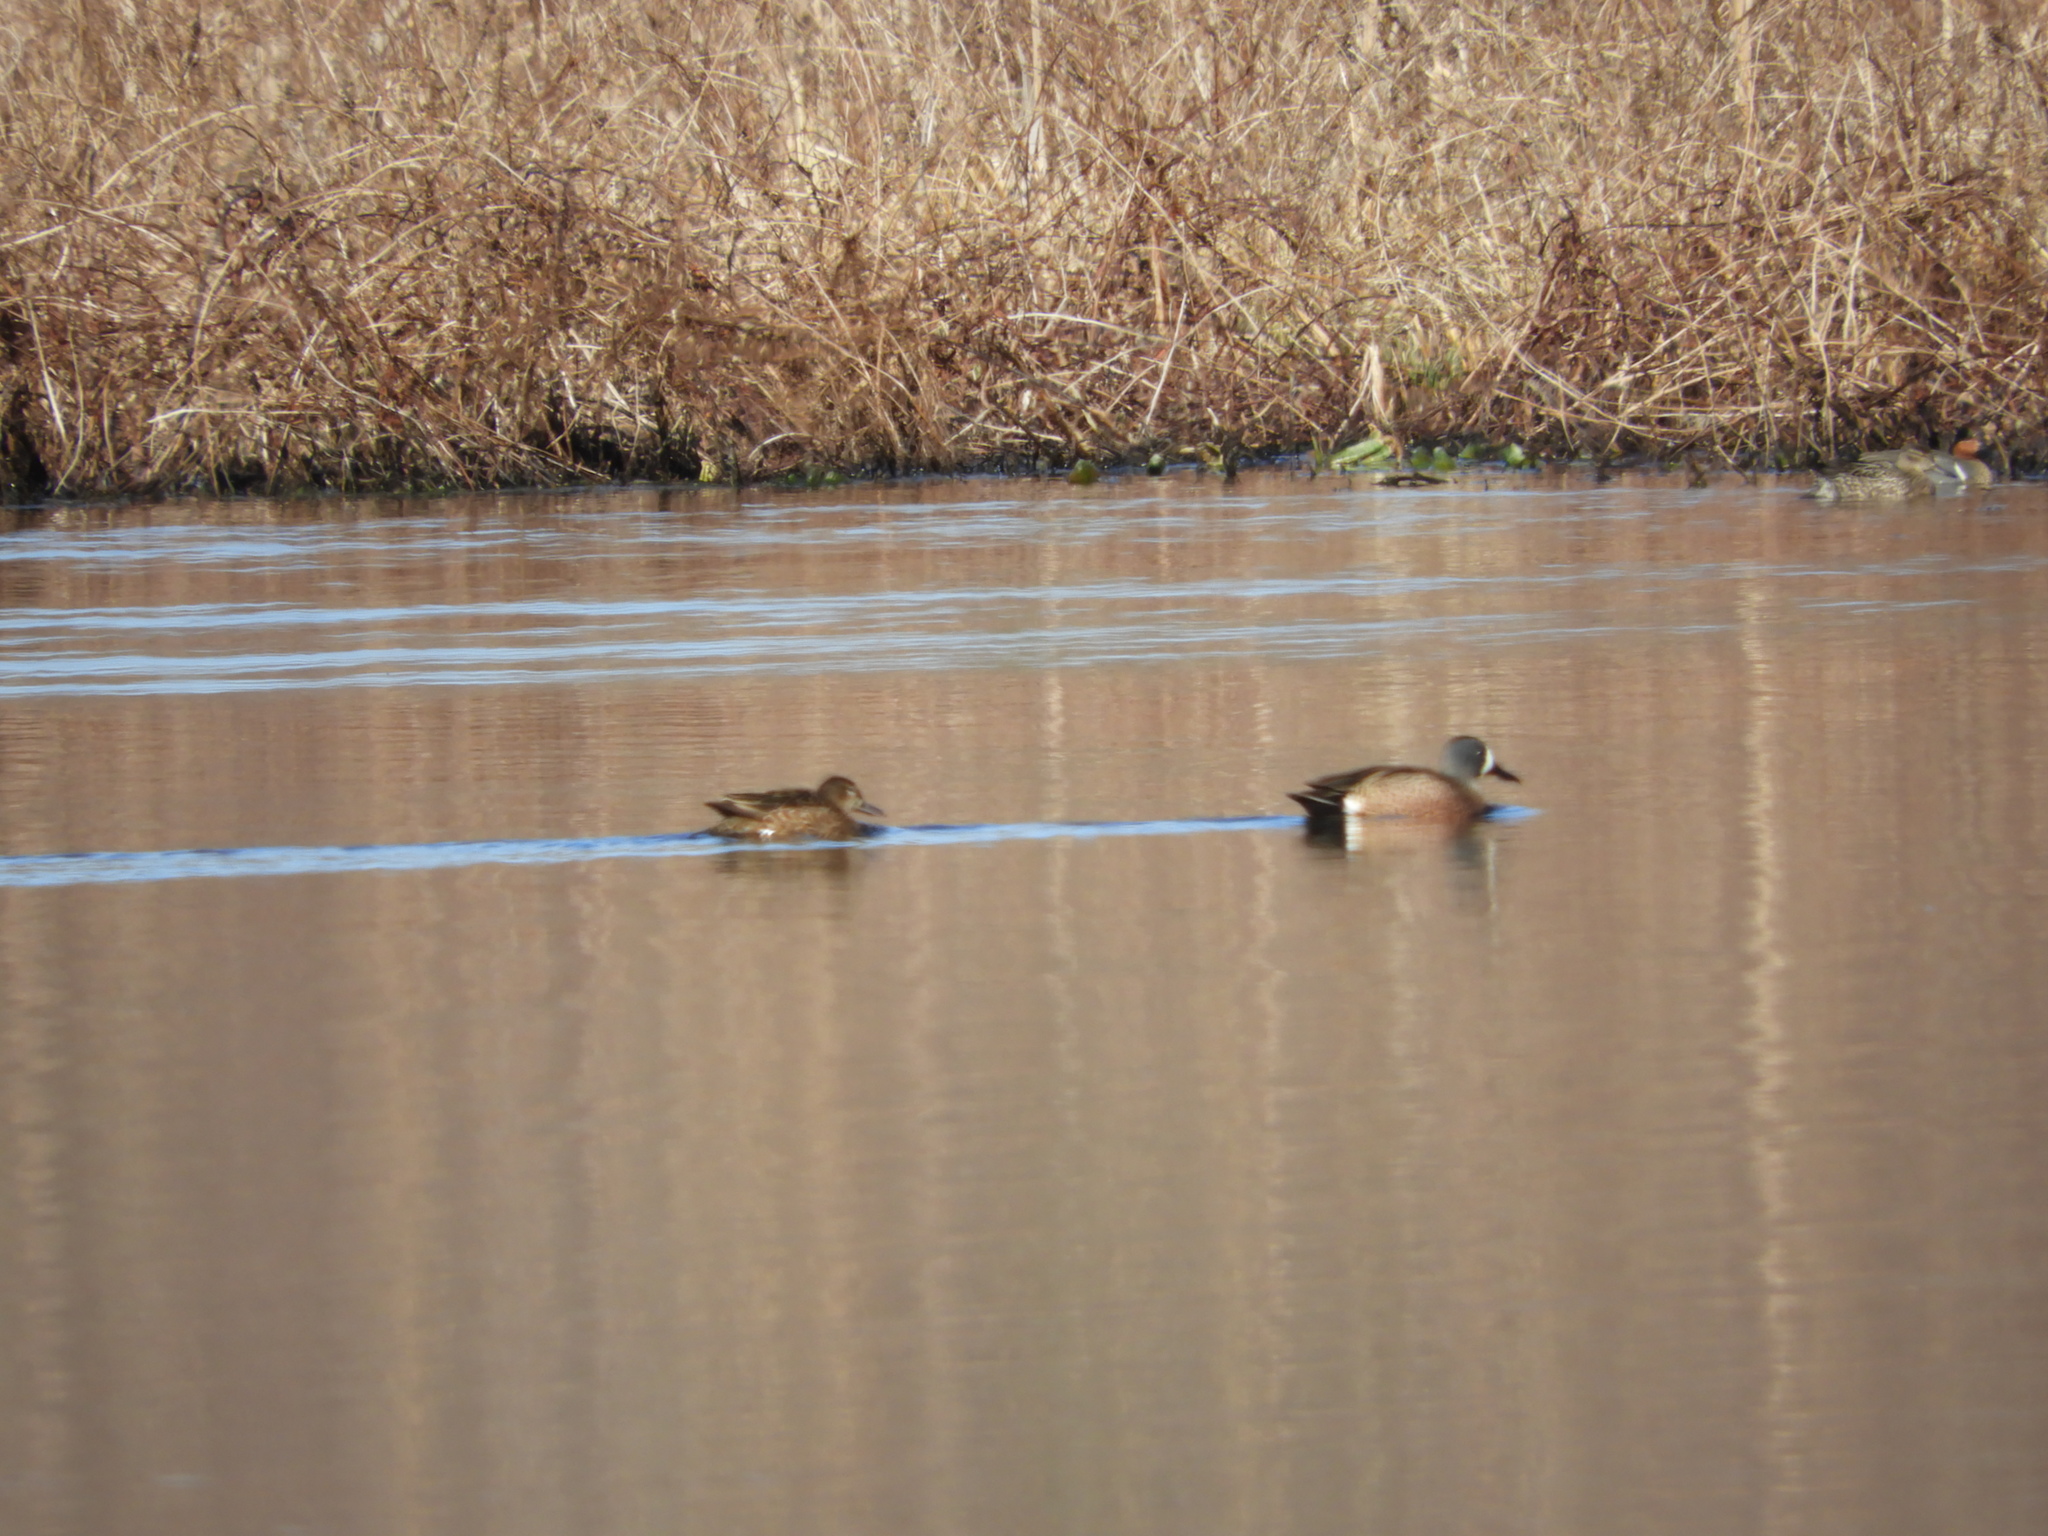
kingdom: Animalia
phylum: Chordata
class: Aves
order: Anseriformes
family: Anatidae
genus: Spatula
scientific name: Spatula discors
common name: Blue-winged teal
